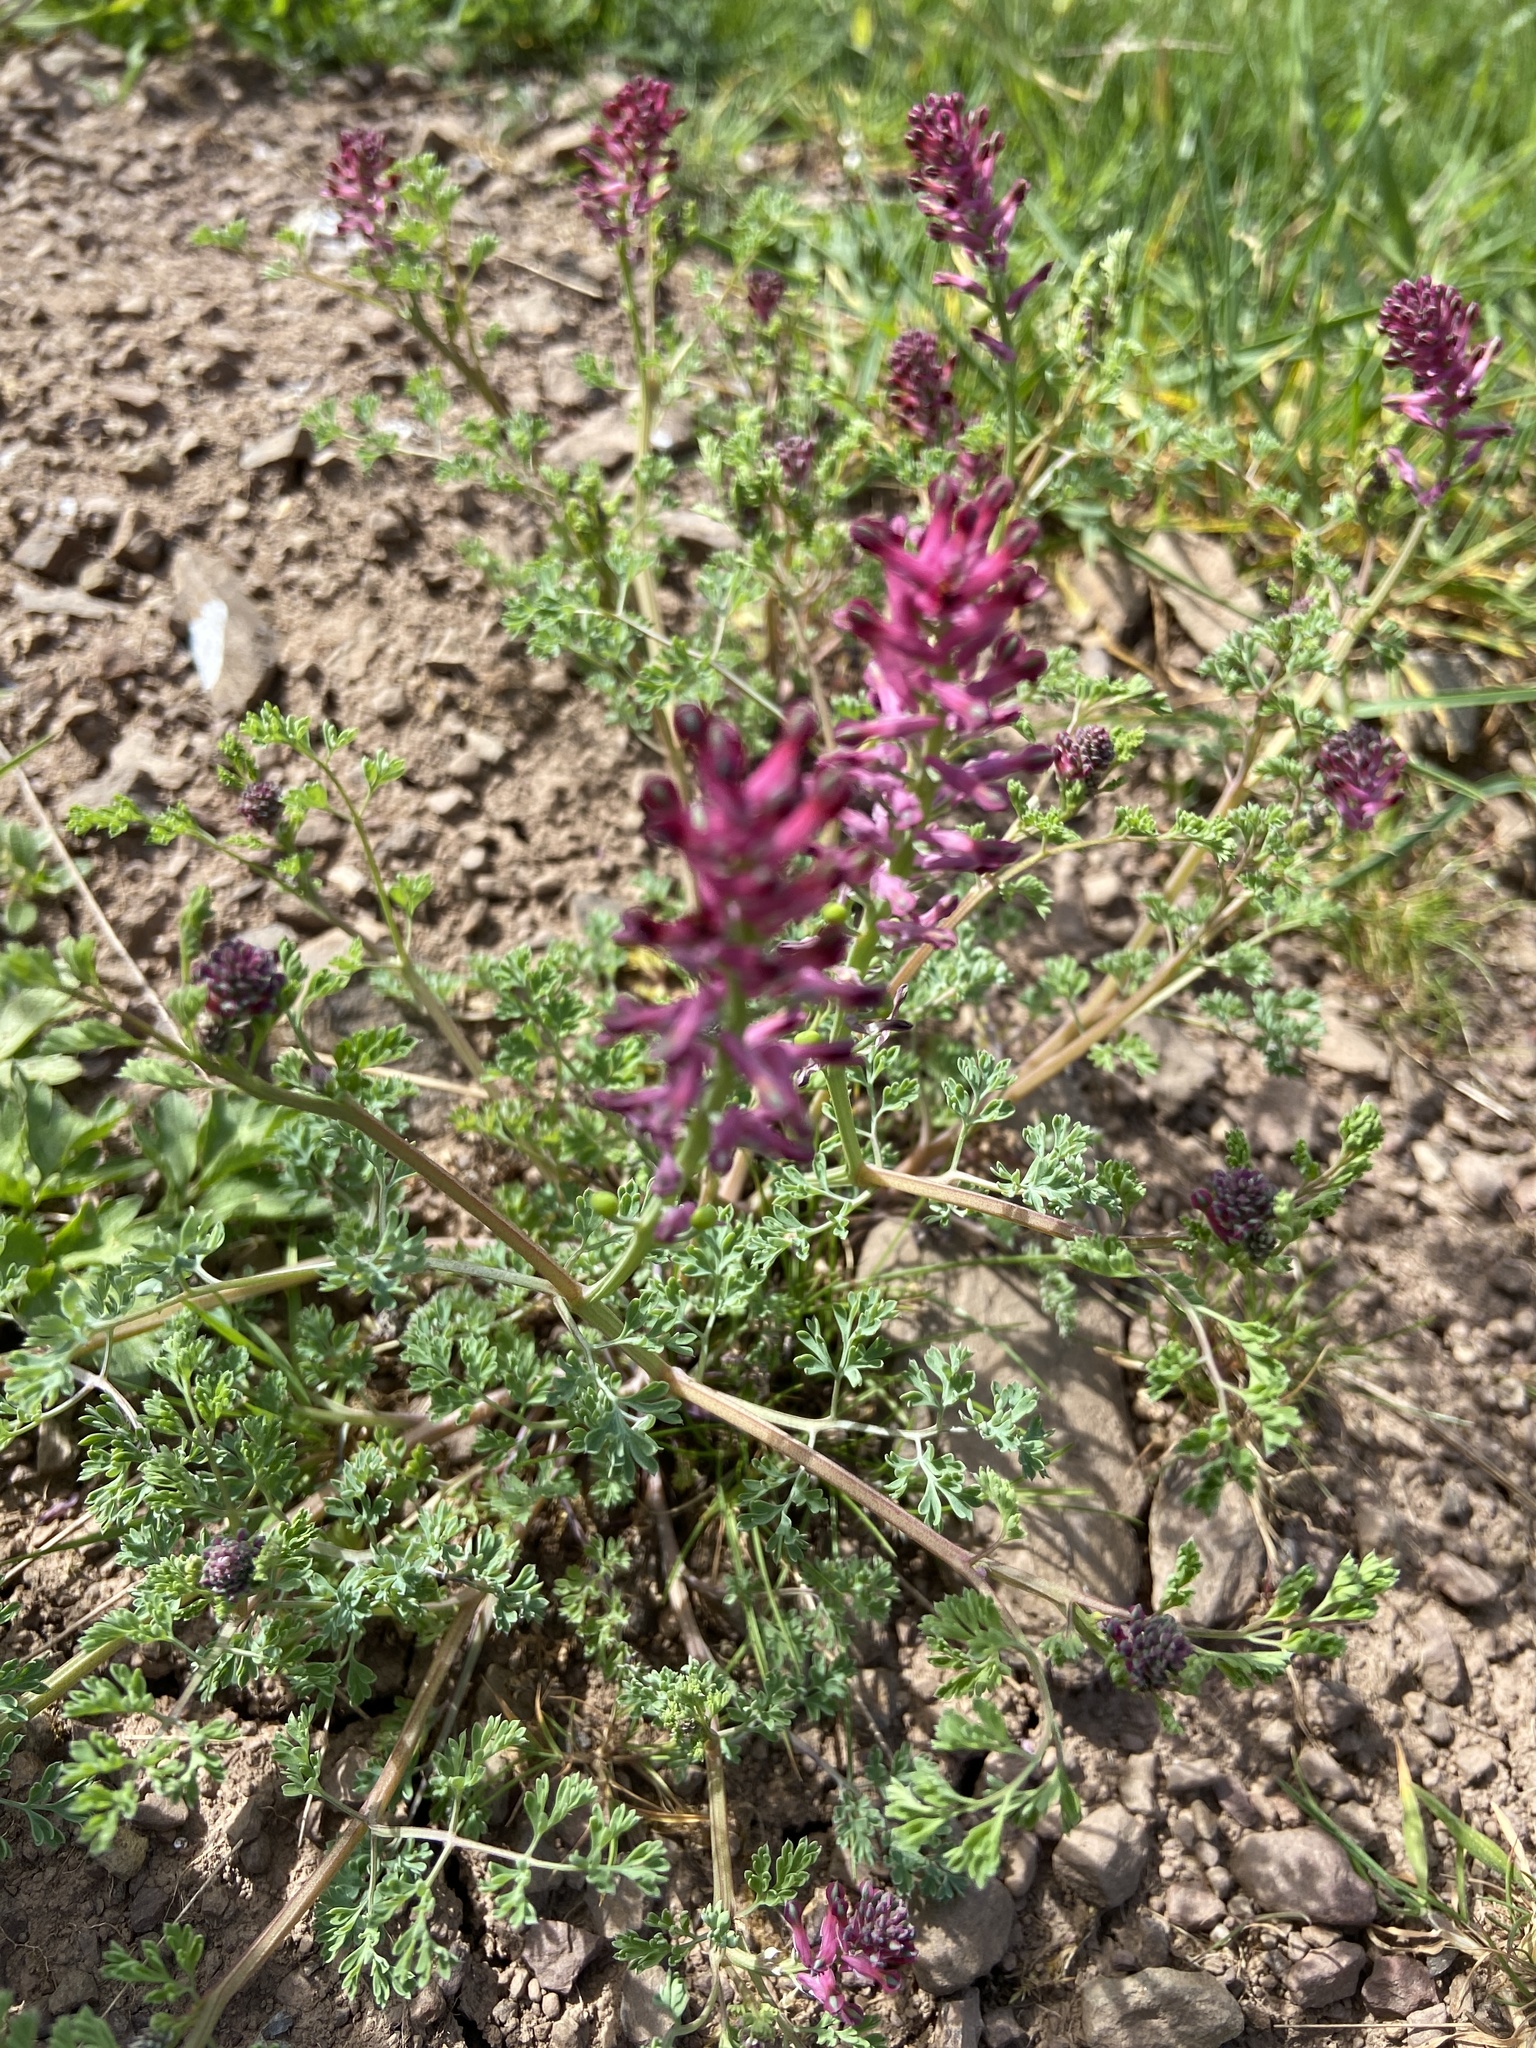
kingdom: Plantae
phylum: Tracheophyta
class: Magnoliopsida
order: Ranunculales
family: Papaveraceae
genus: Fumaria
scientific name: Fumaria officinalis
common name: Common fumitory
